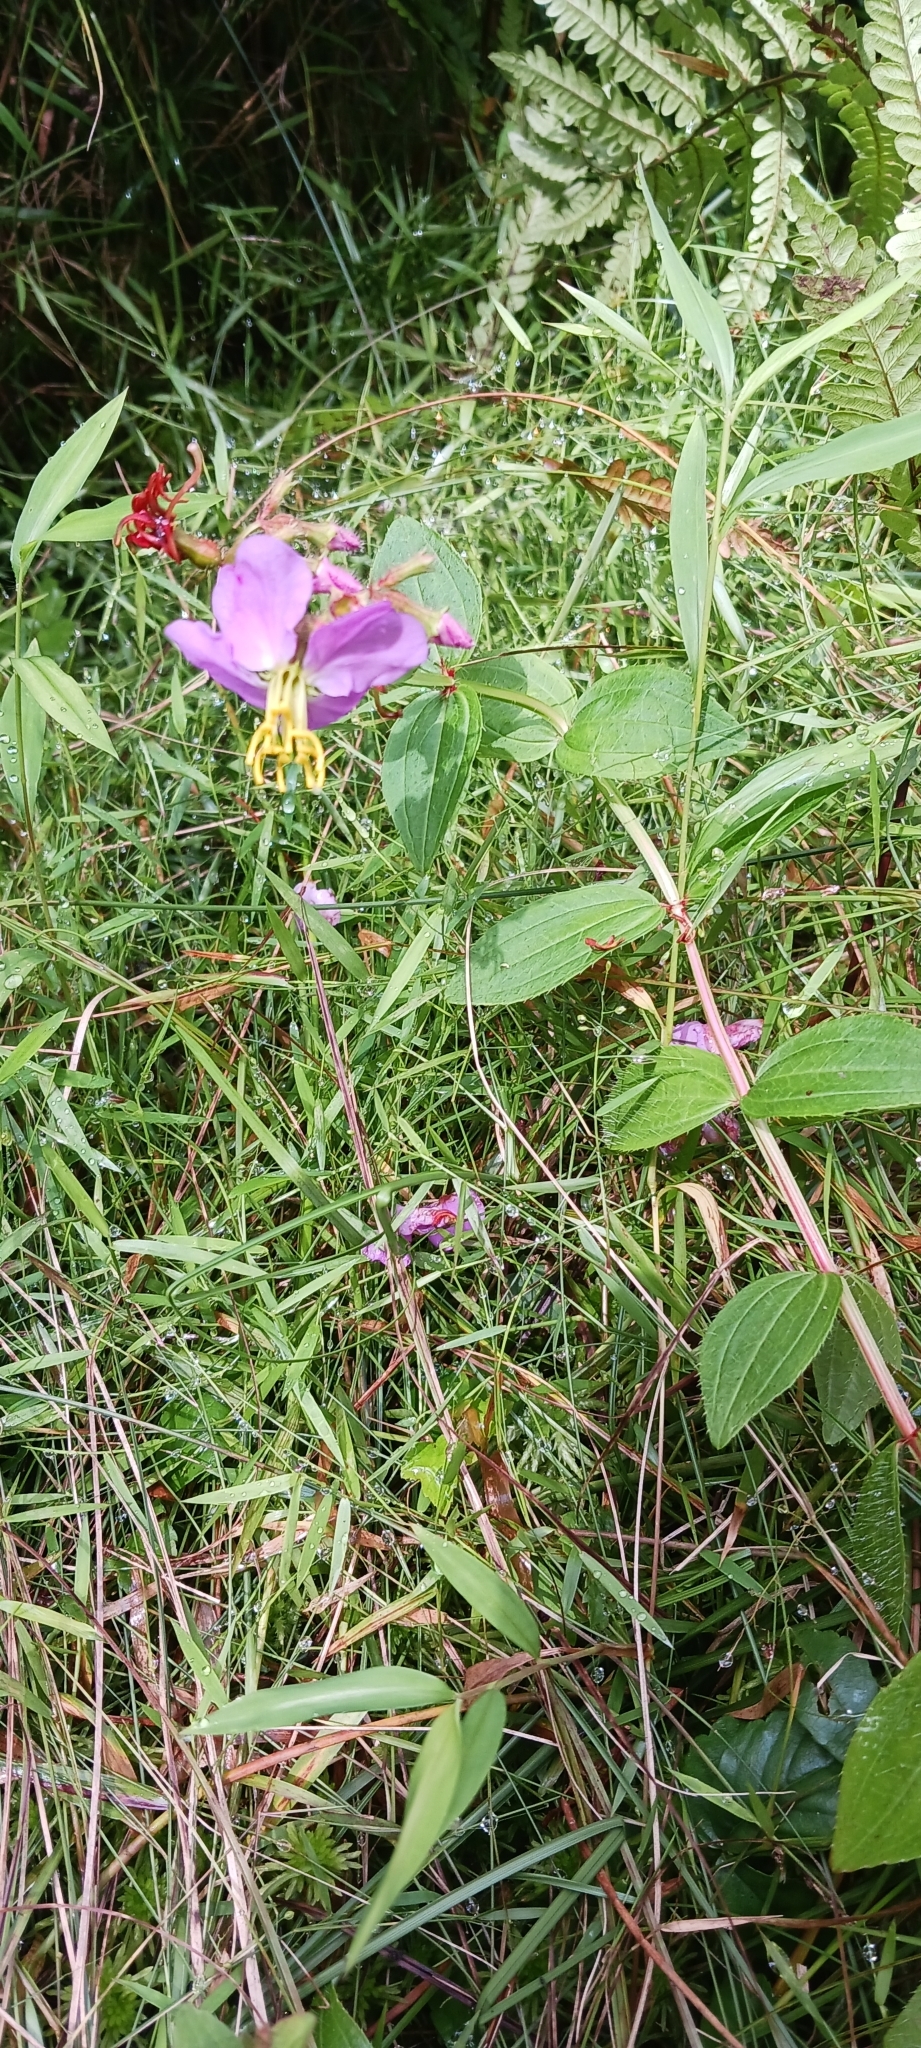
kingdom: Plantae
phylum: Tracheophyta
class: Magnoliopsida
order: Myrtales
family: Melastomataceae
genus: Rhexia
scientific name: Rhexia virginica
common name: Common meadow beauty
